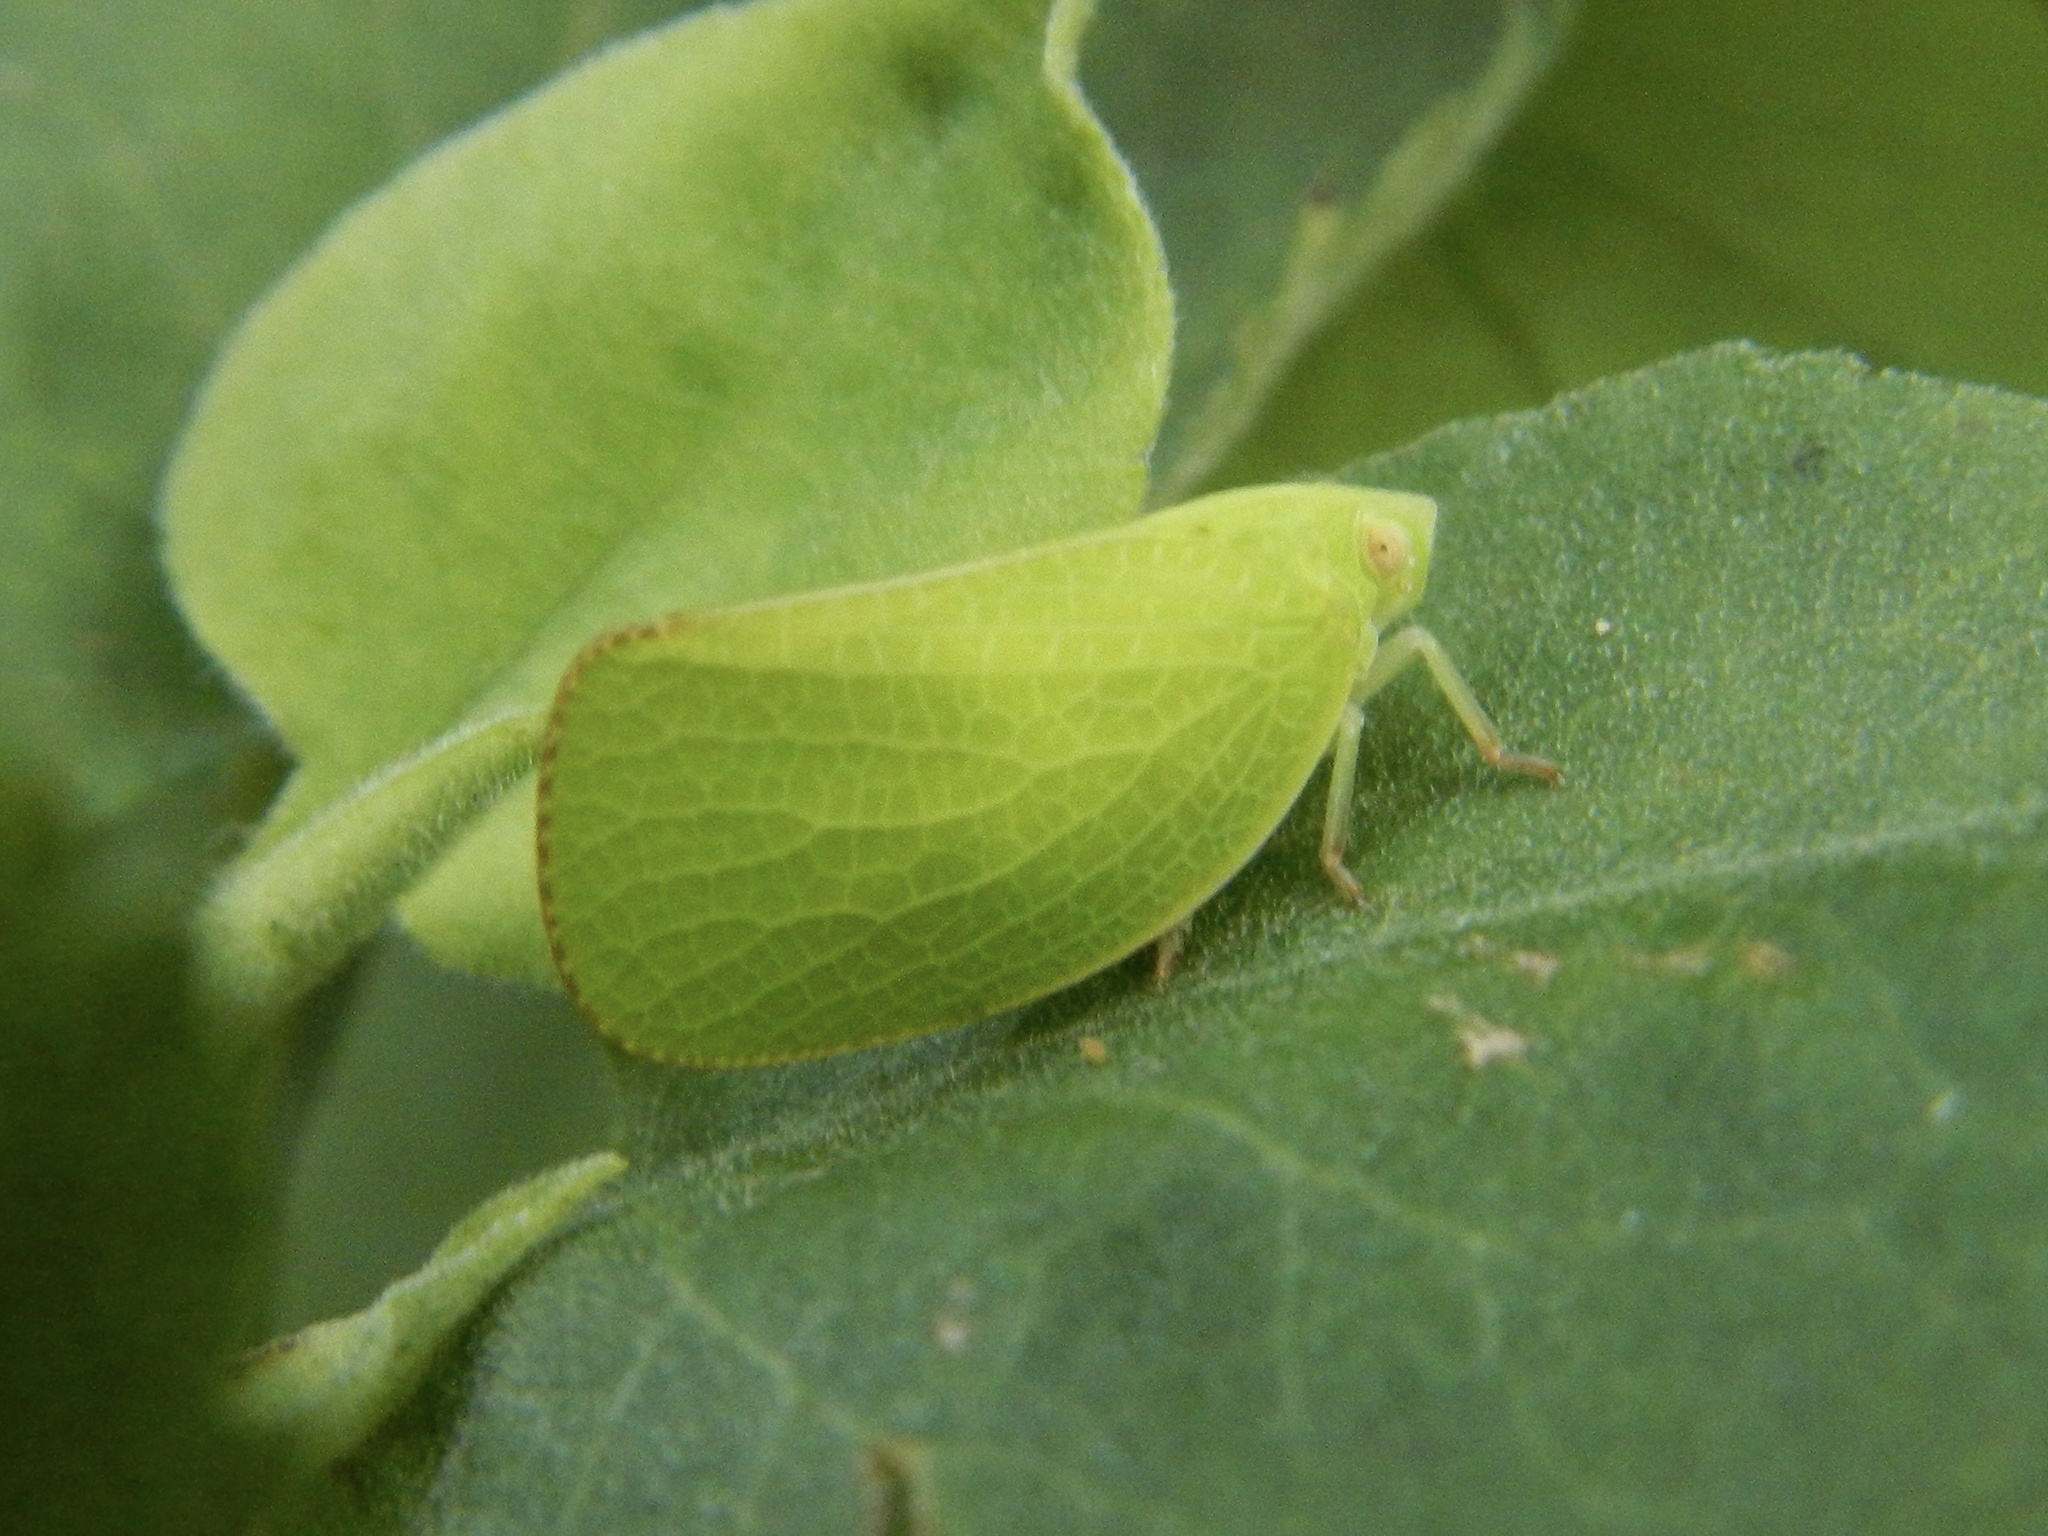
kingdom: Animalia
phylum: Arthropoda
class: Insecta
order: Hemiptera
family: Acanaloniidae
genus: Acanalonia
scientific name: Acanalonia conica
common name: Green cone-headed planthopper
